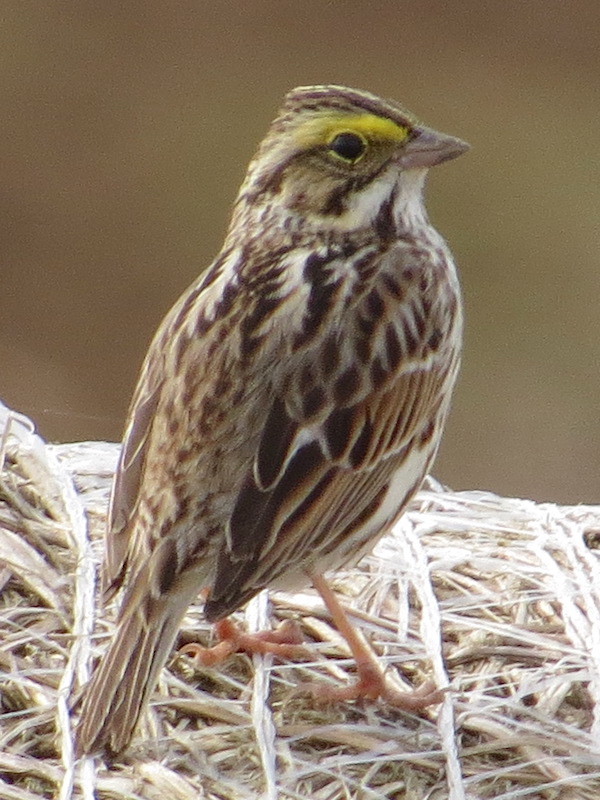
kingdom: Animalia
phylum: Chordata
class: Aves
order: Passeriformes
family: Passerellidae
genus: Passerculus
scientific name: Passerculus sandwichensis
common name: Savannah sparrow
